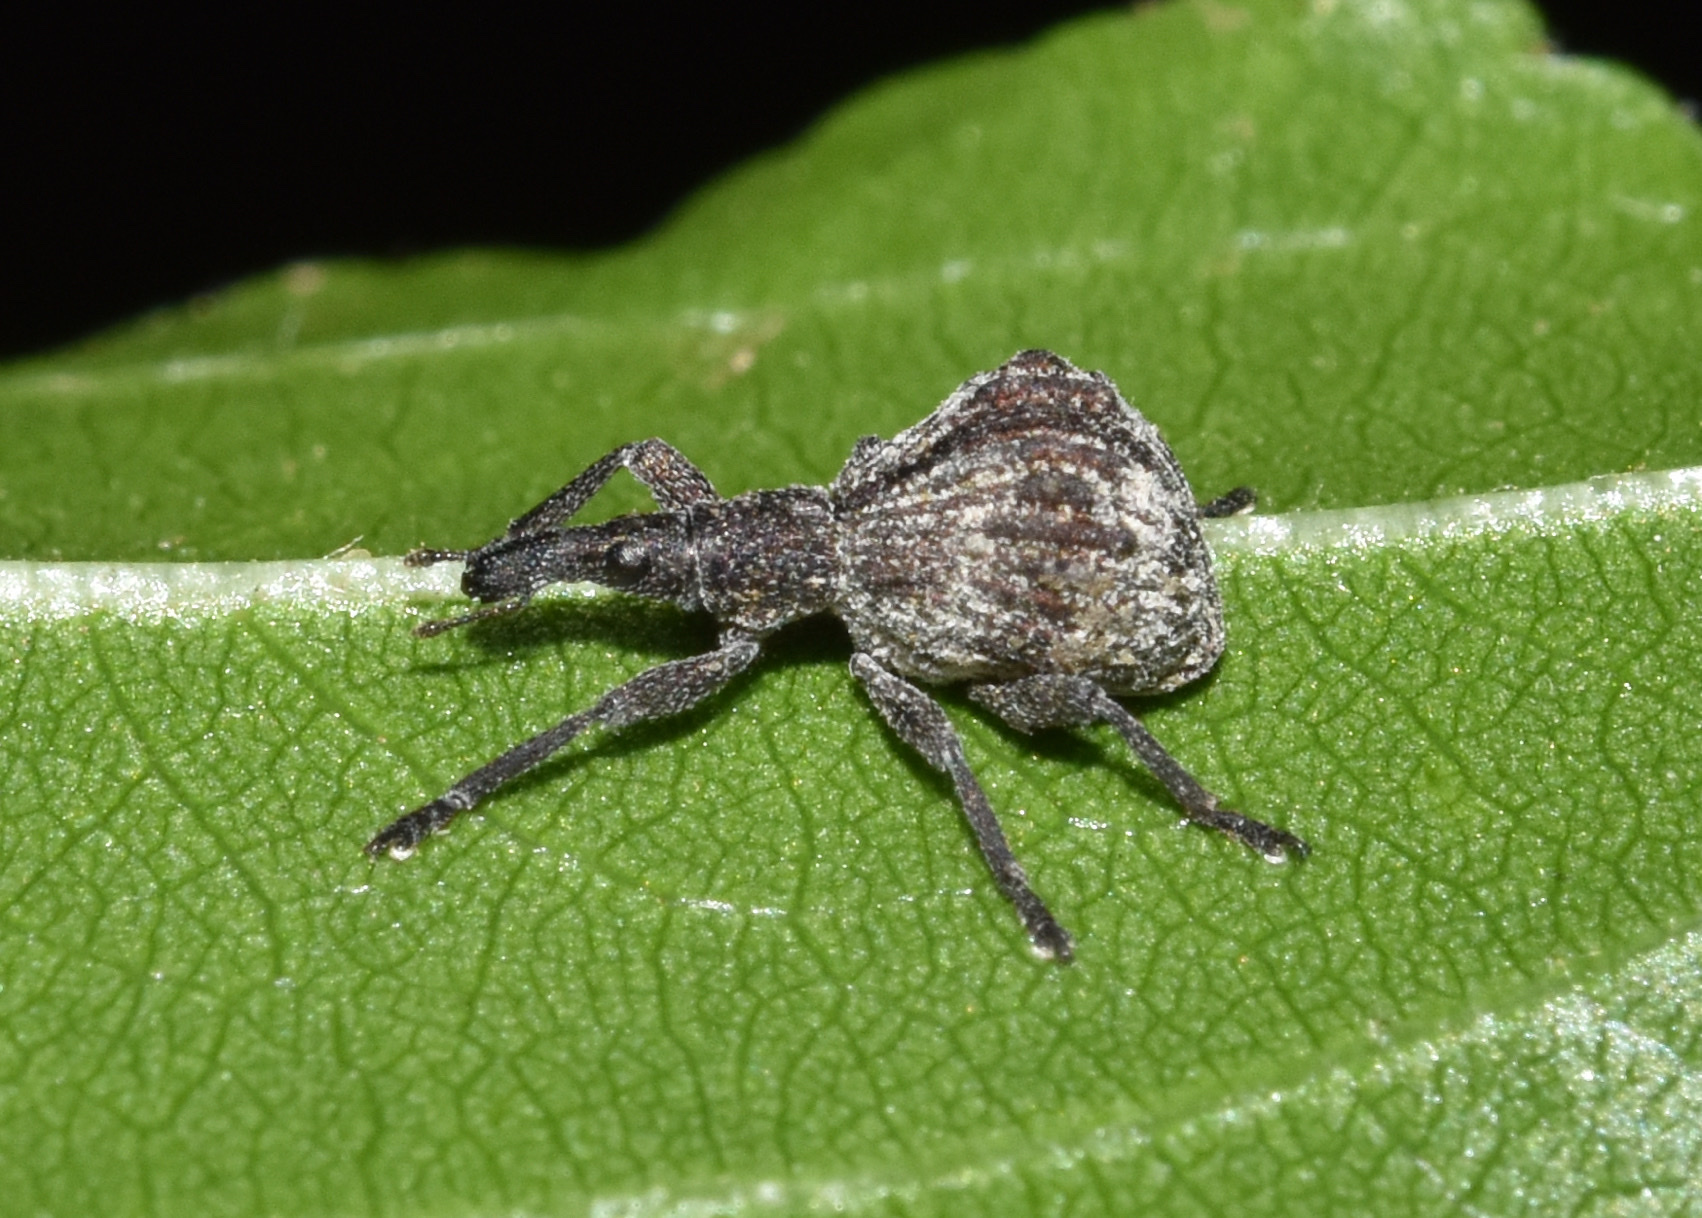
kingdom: Animalia
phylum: Arthropoda
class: Insecta
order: Coleoptera
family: Brentidae
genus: Aplemonus
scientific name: Aplemonus
